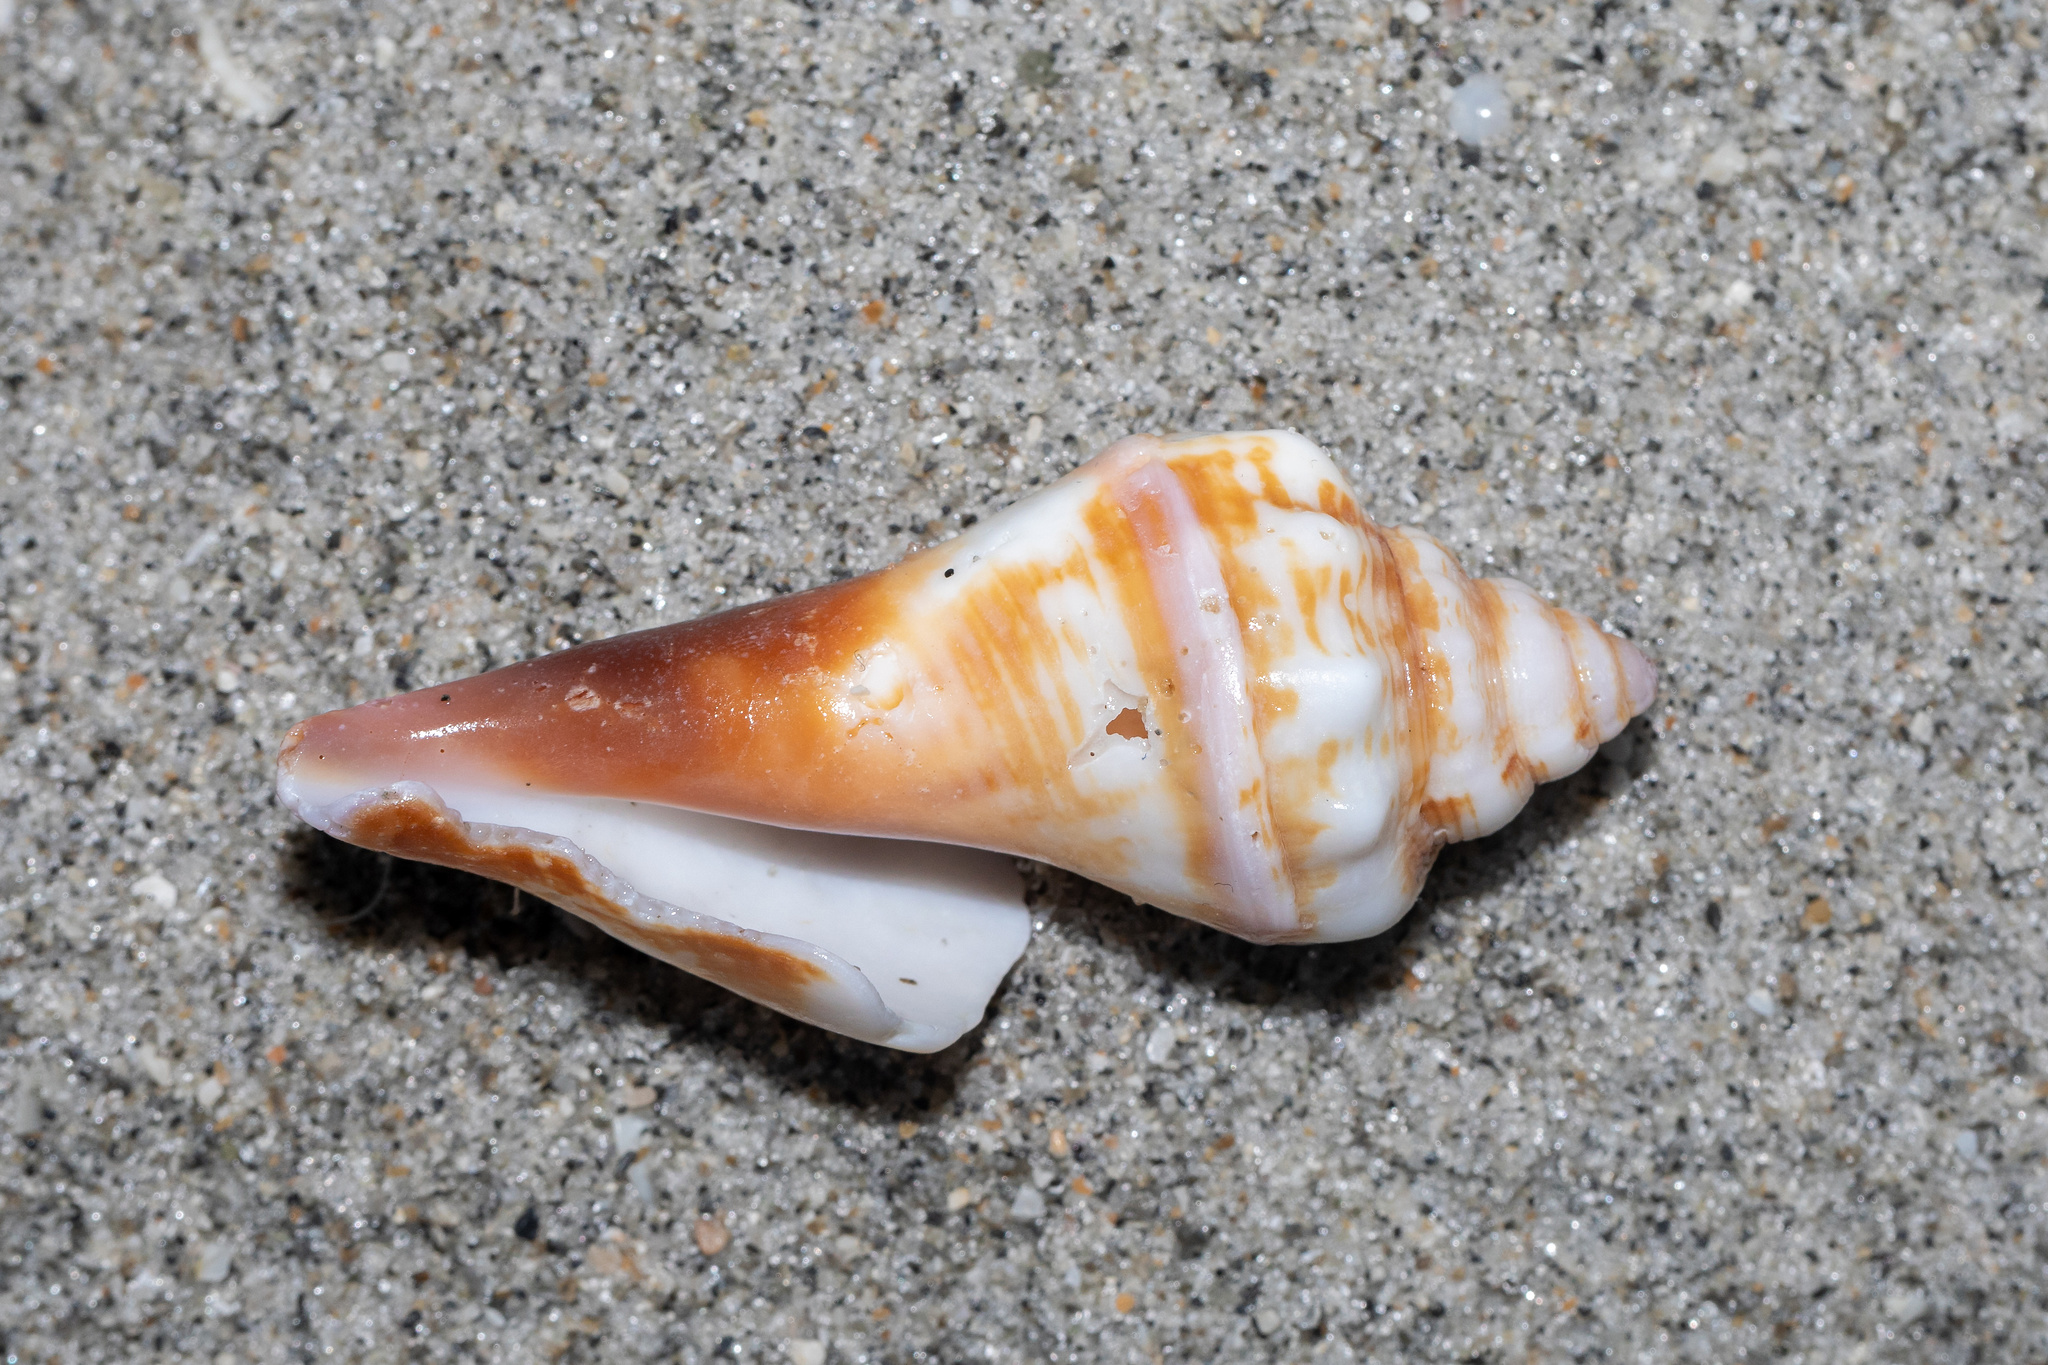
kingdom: Animalia
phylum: Mollusca
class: Gastropoda
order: Littorinimorpha
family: Strombidae
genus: Strombus
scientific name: Strombus alatus
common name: Florida fighting conch
